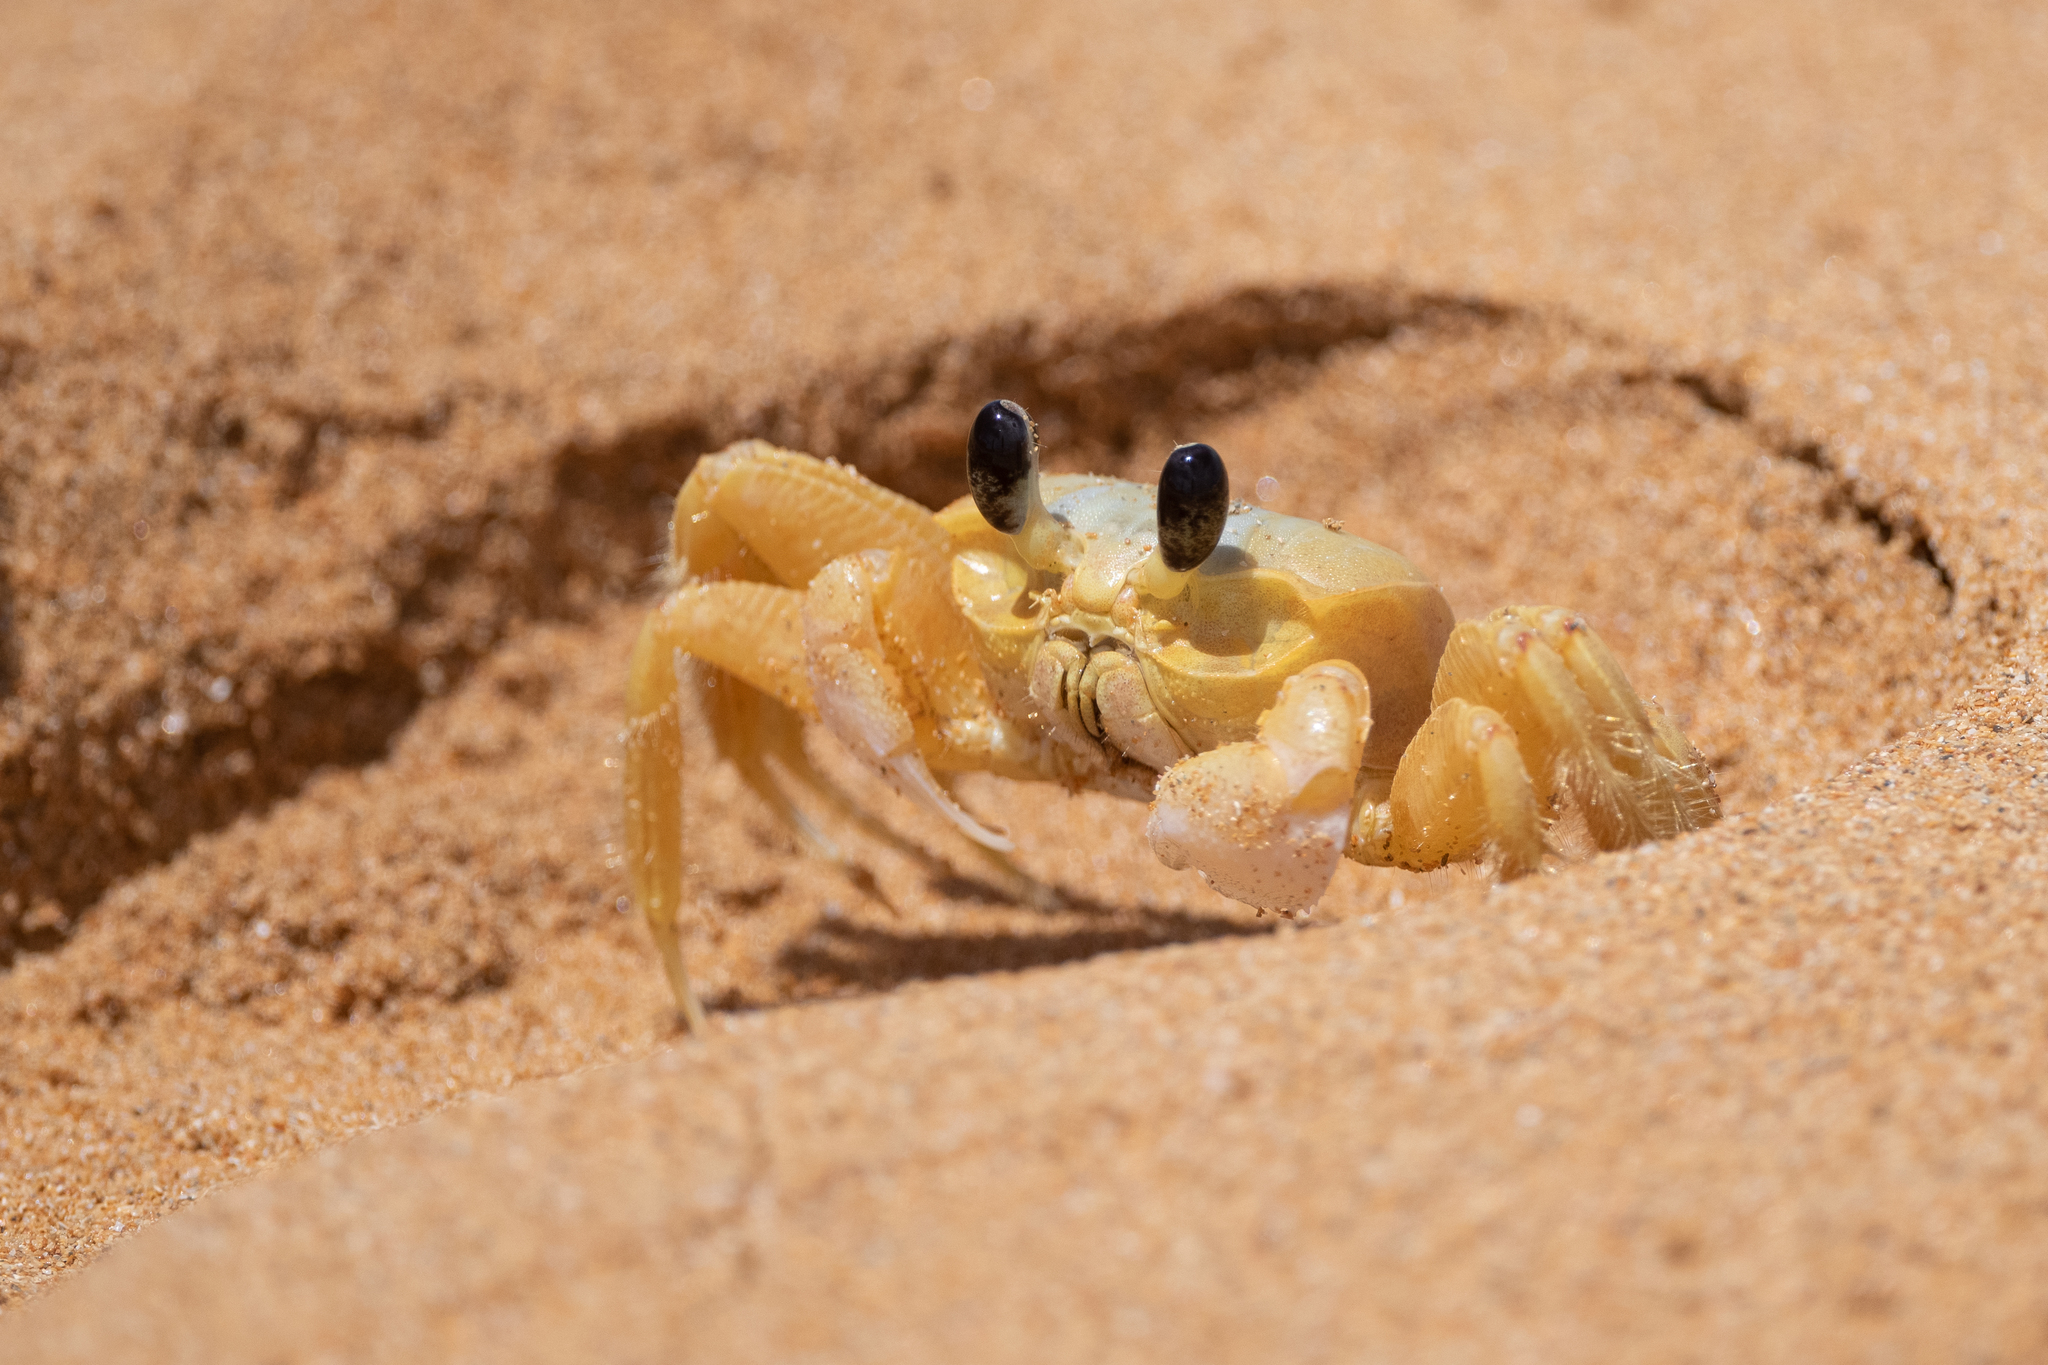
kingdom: Animalia
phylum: Arthropoda
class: Malacostraca
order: Decapoda
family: Ocypodidae
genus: Ocypode
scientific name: Ocypode quadrata
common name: Ghost crab
